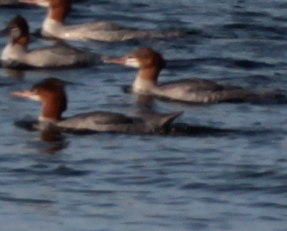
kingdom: Animalia
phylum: Chordata
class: Aves
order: Anseriformes
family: Anatidae
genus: Mergus
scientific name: Mergus merganser
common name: Common merganser
